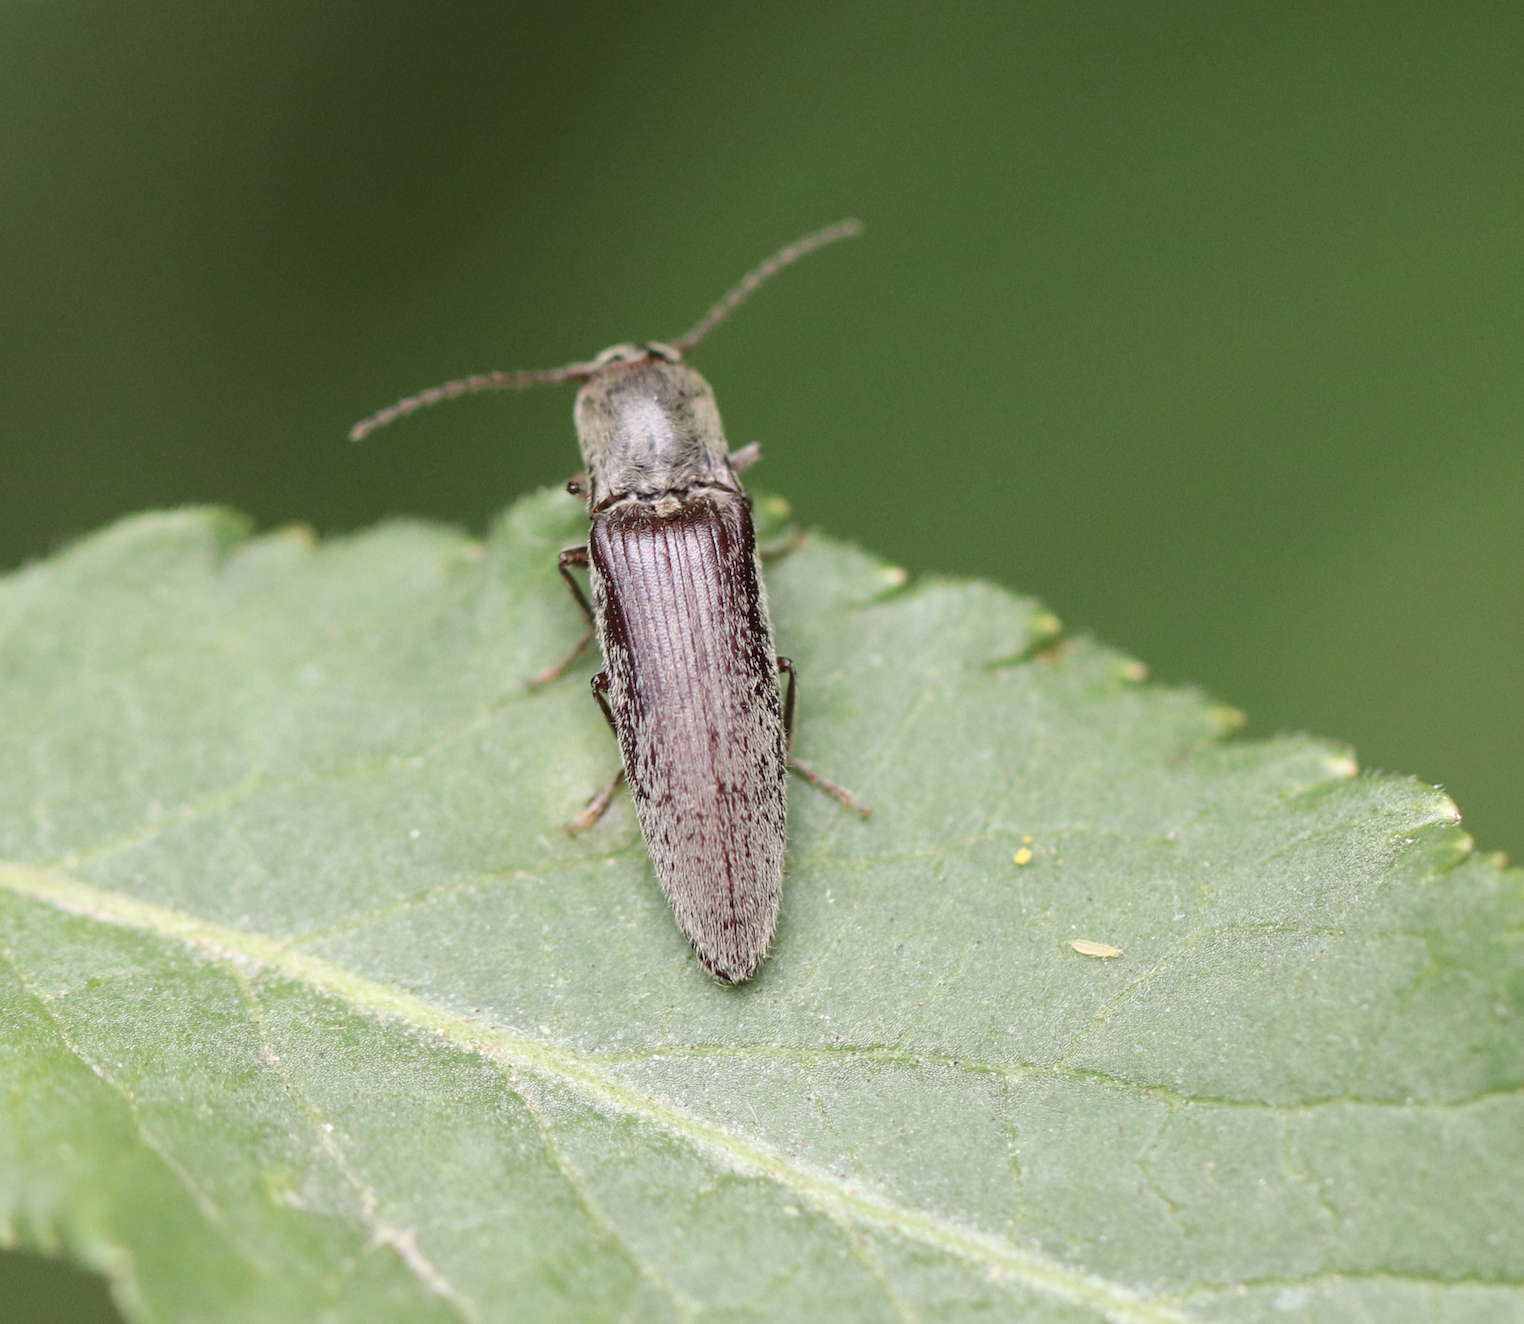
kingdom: Animalia
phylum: Arthropoda
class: Insecta
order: Coleoptera
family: Elateridae
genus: Synaptus
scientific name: Synaptus filiformis
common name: Hairy click beetle
